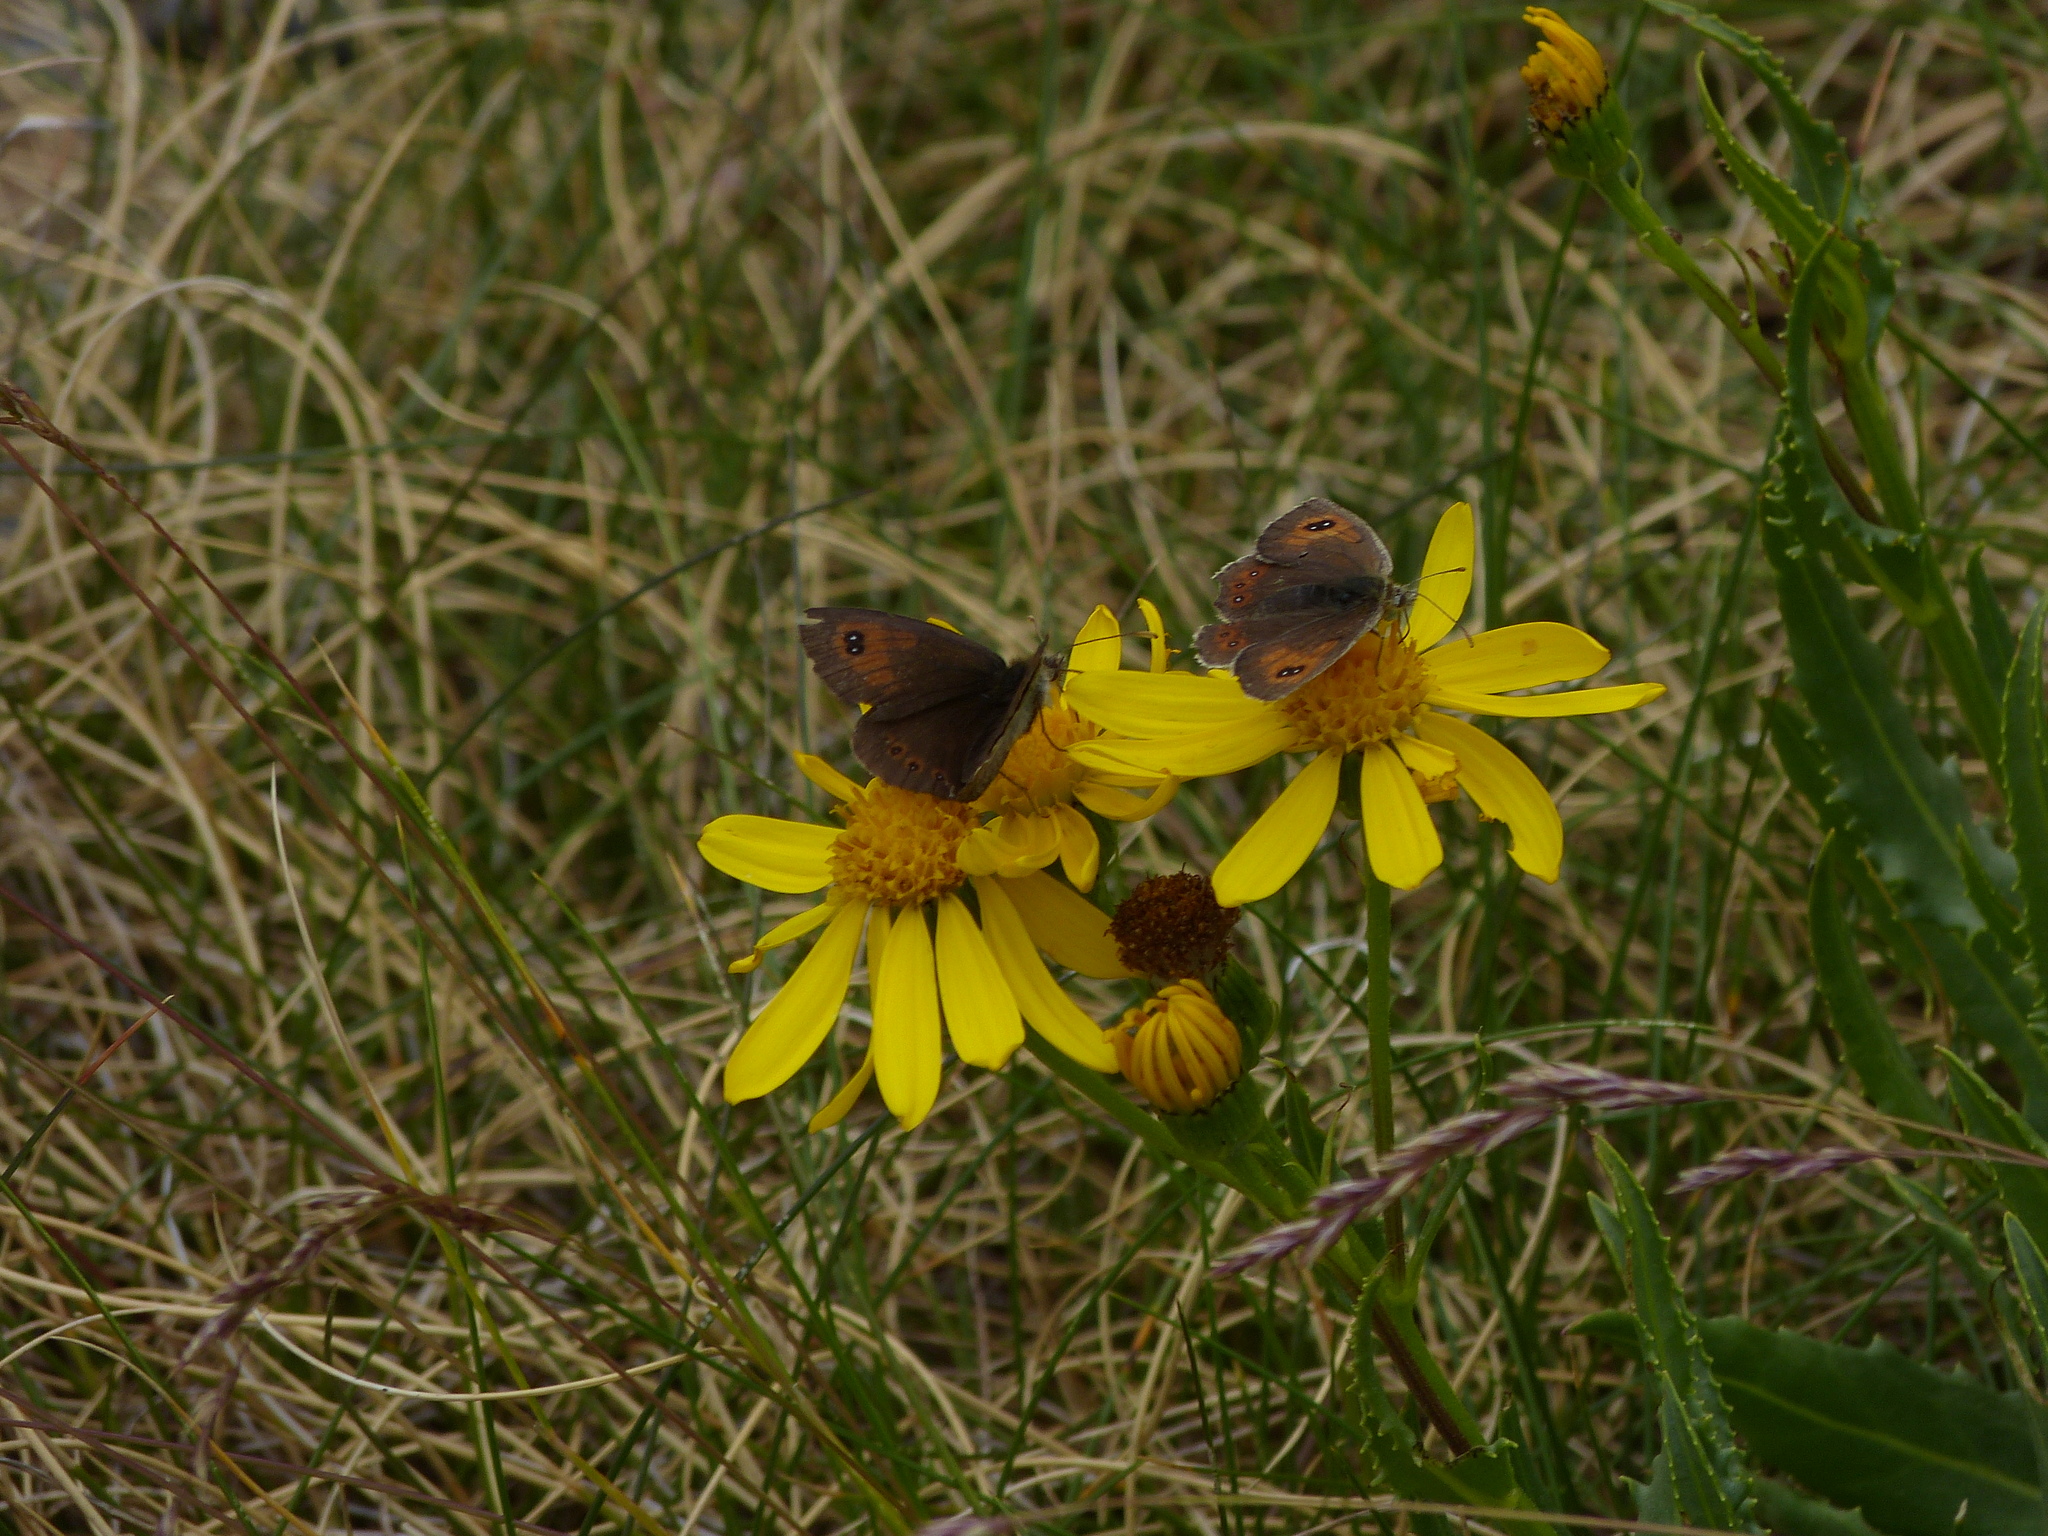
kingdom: Animalia
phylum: Arthropoda
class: Insecta
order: Lepidoptera
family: Nymphalidae
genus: Erebia
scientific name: Erebia cassioides
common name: Common brassy ringlet
